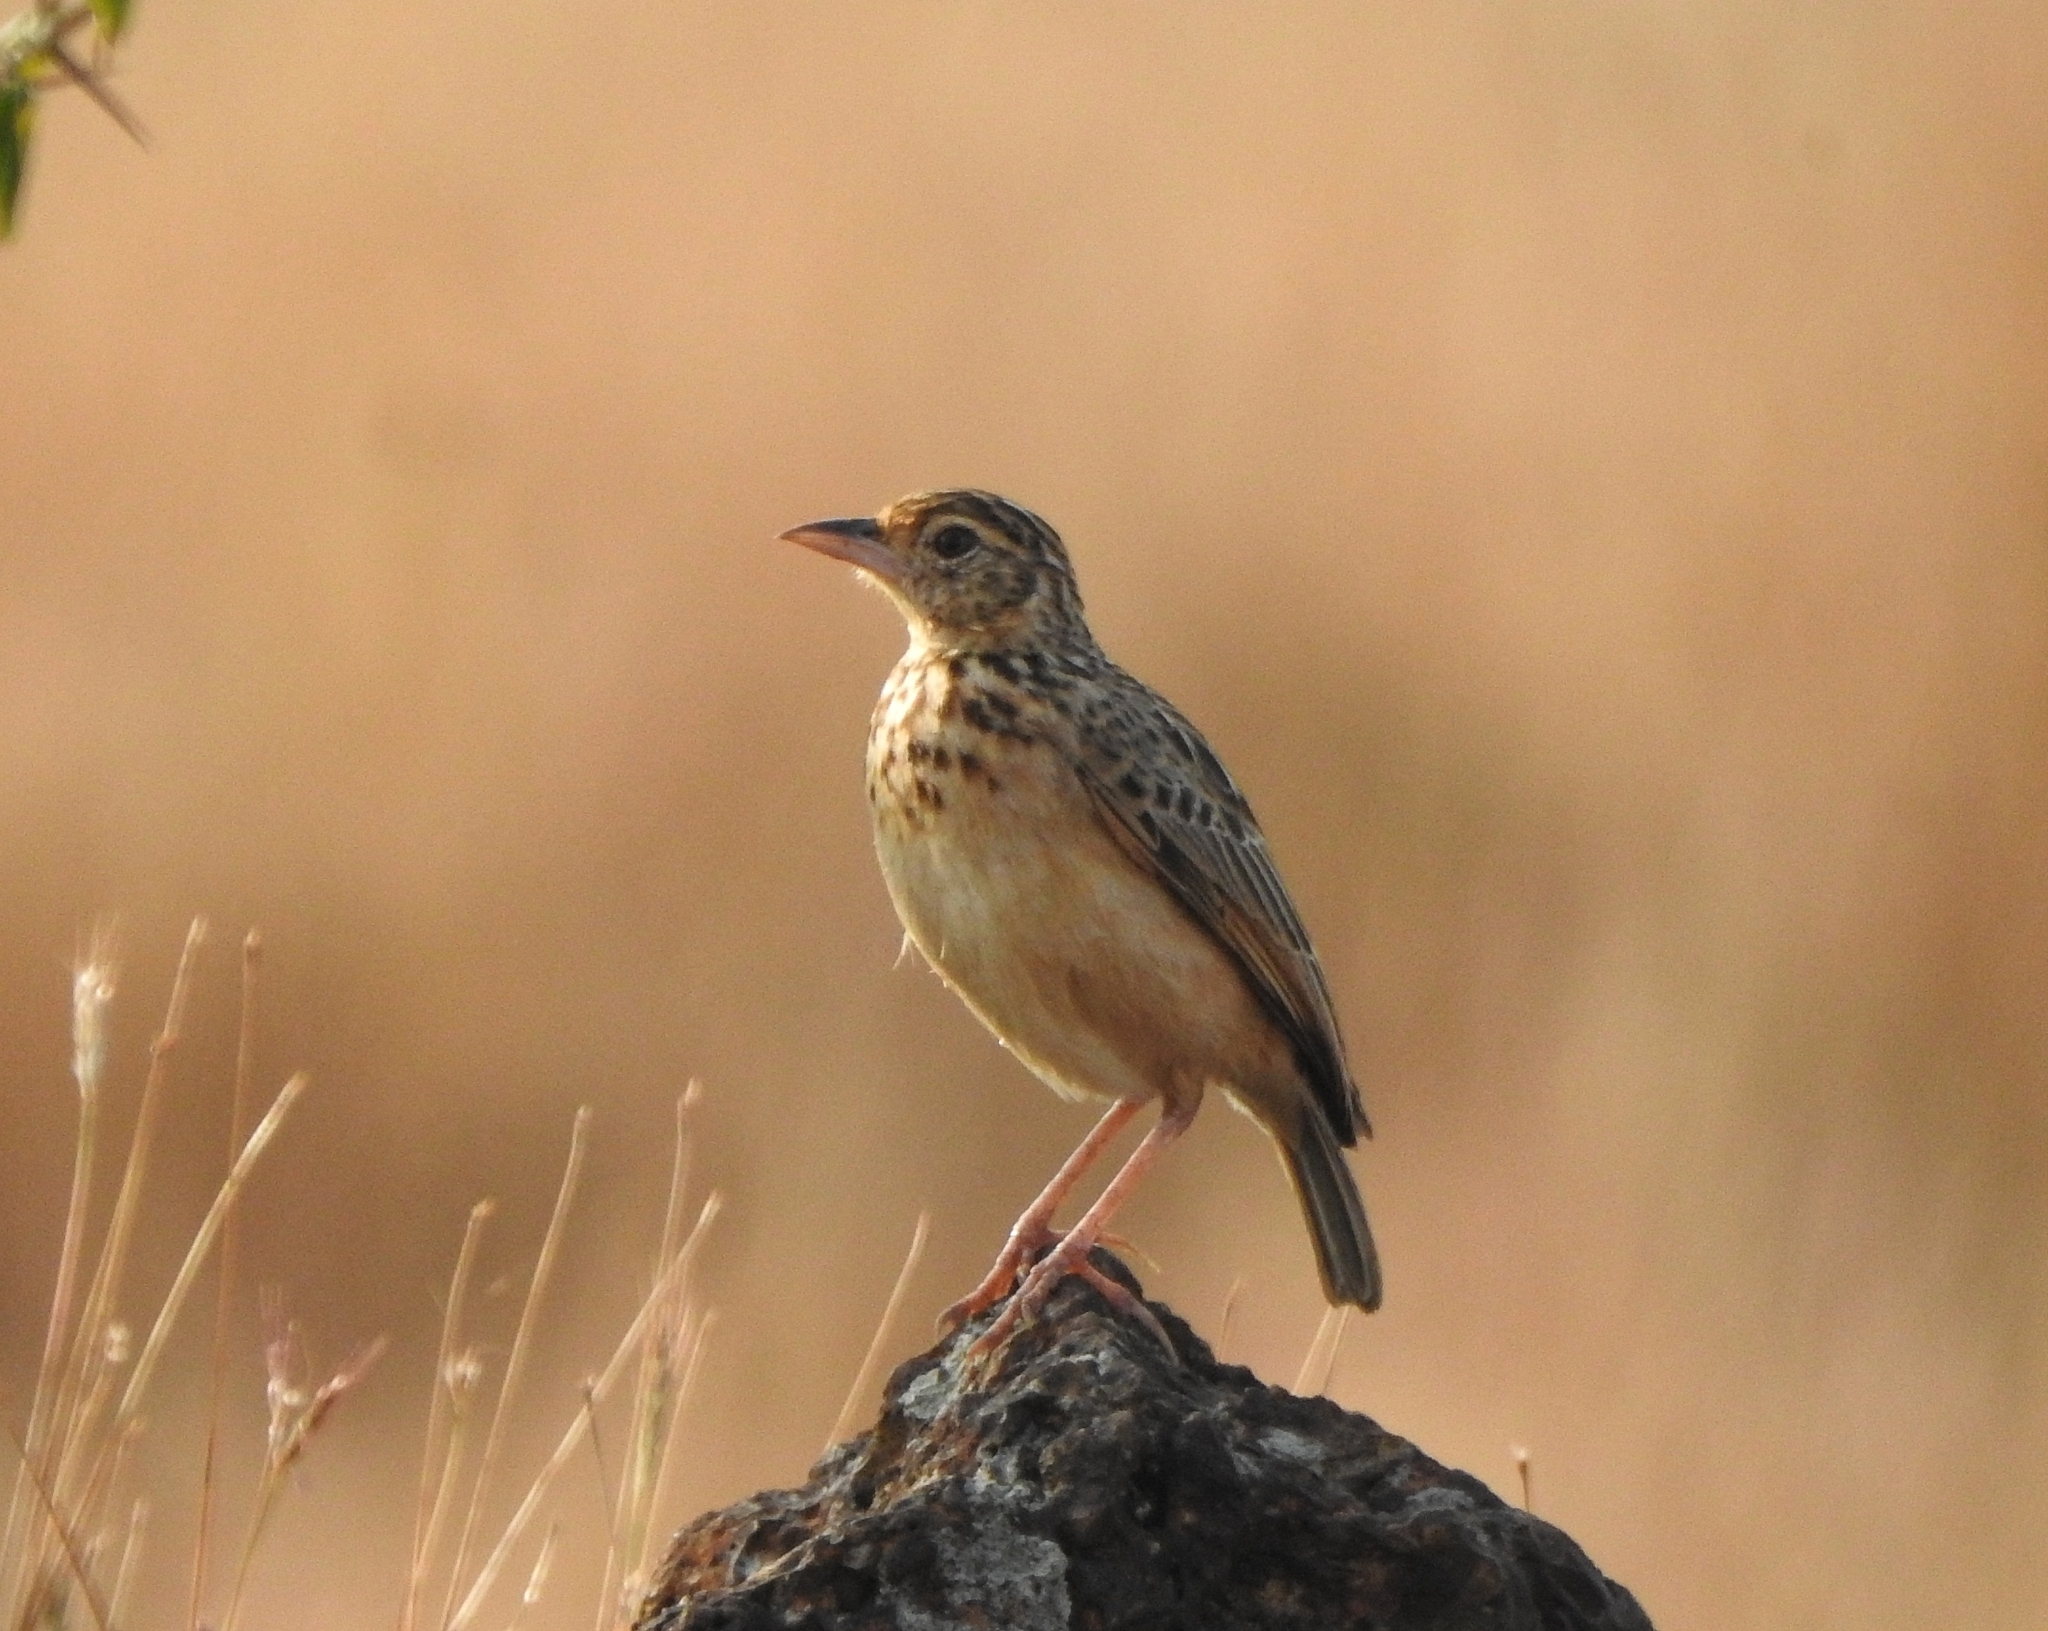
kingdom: Animalia
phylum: Chordata
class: Aves
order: Passeriformes
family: Alaudidae
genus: Mirafra
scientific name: Mirafra affinis
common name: Jerdon's bushlark
